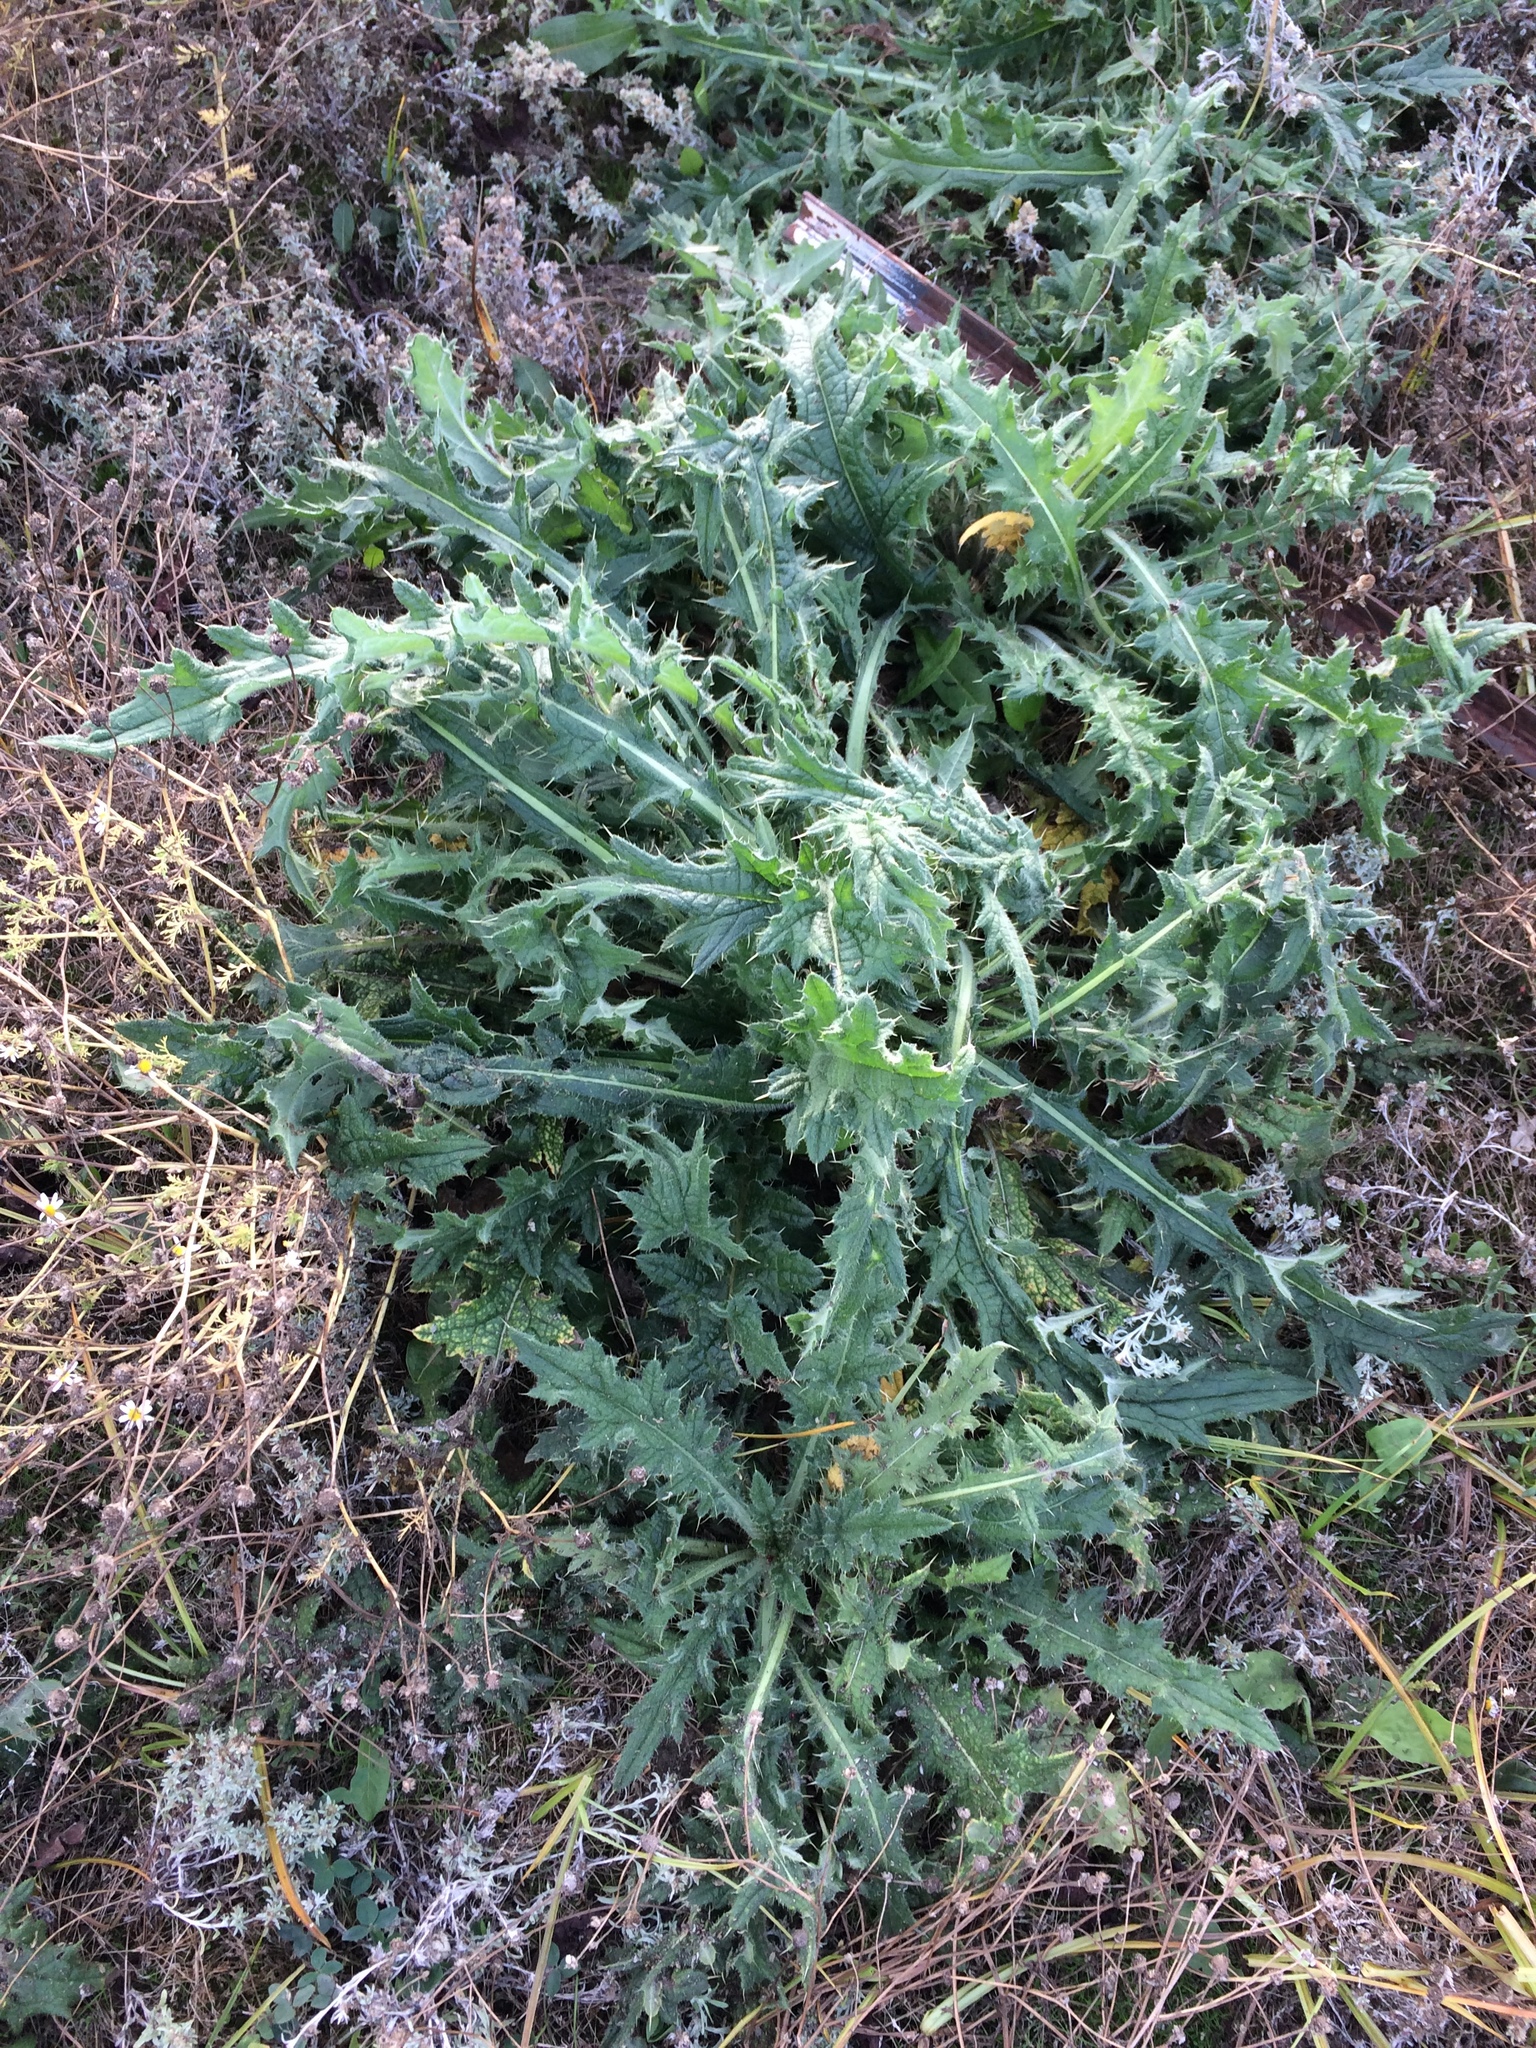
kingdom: Plantae
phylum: Tracheophyta
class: Magnoliopsida
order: Asterales
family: Asteraceae
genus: Cirsium
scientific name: Cirsium vulgare
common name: Bull thistle
